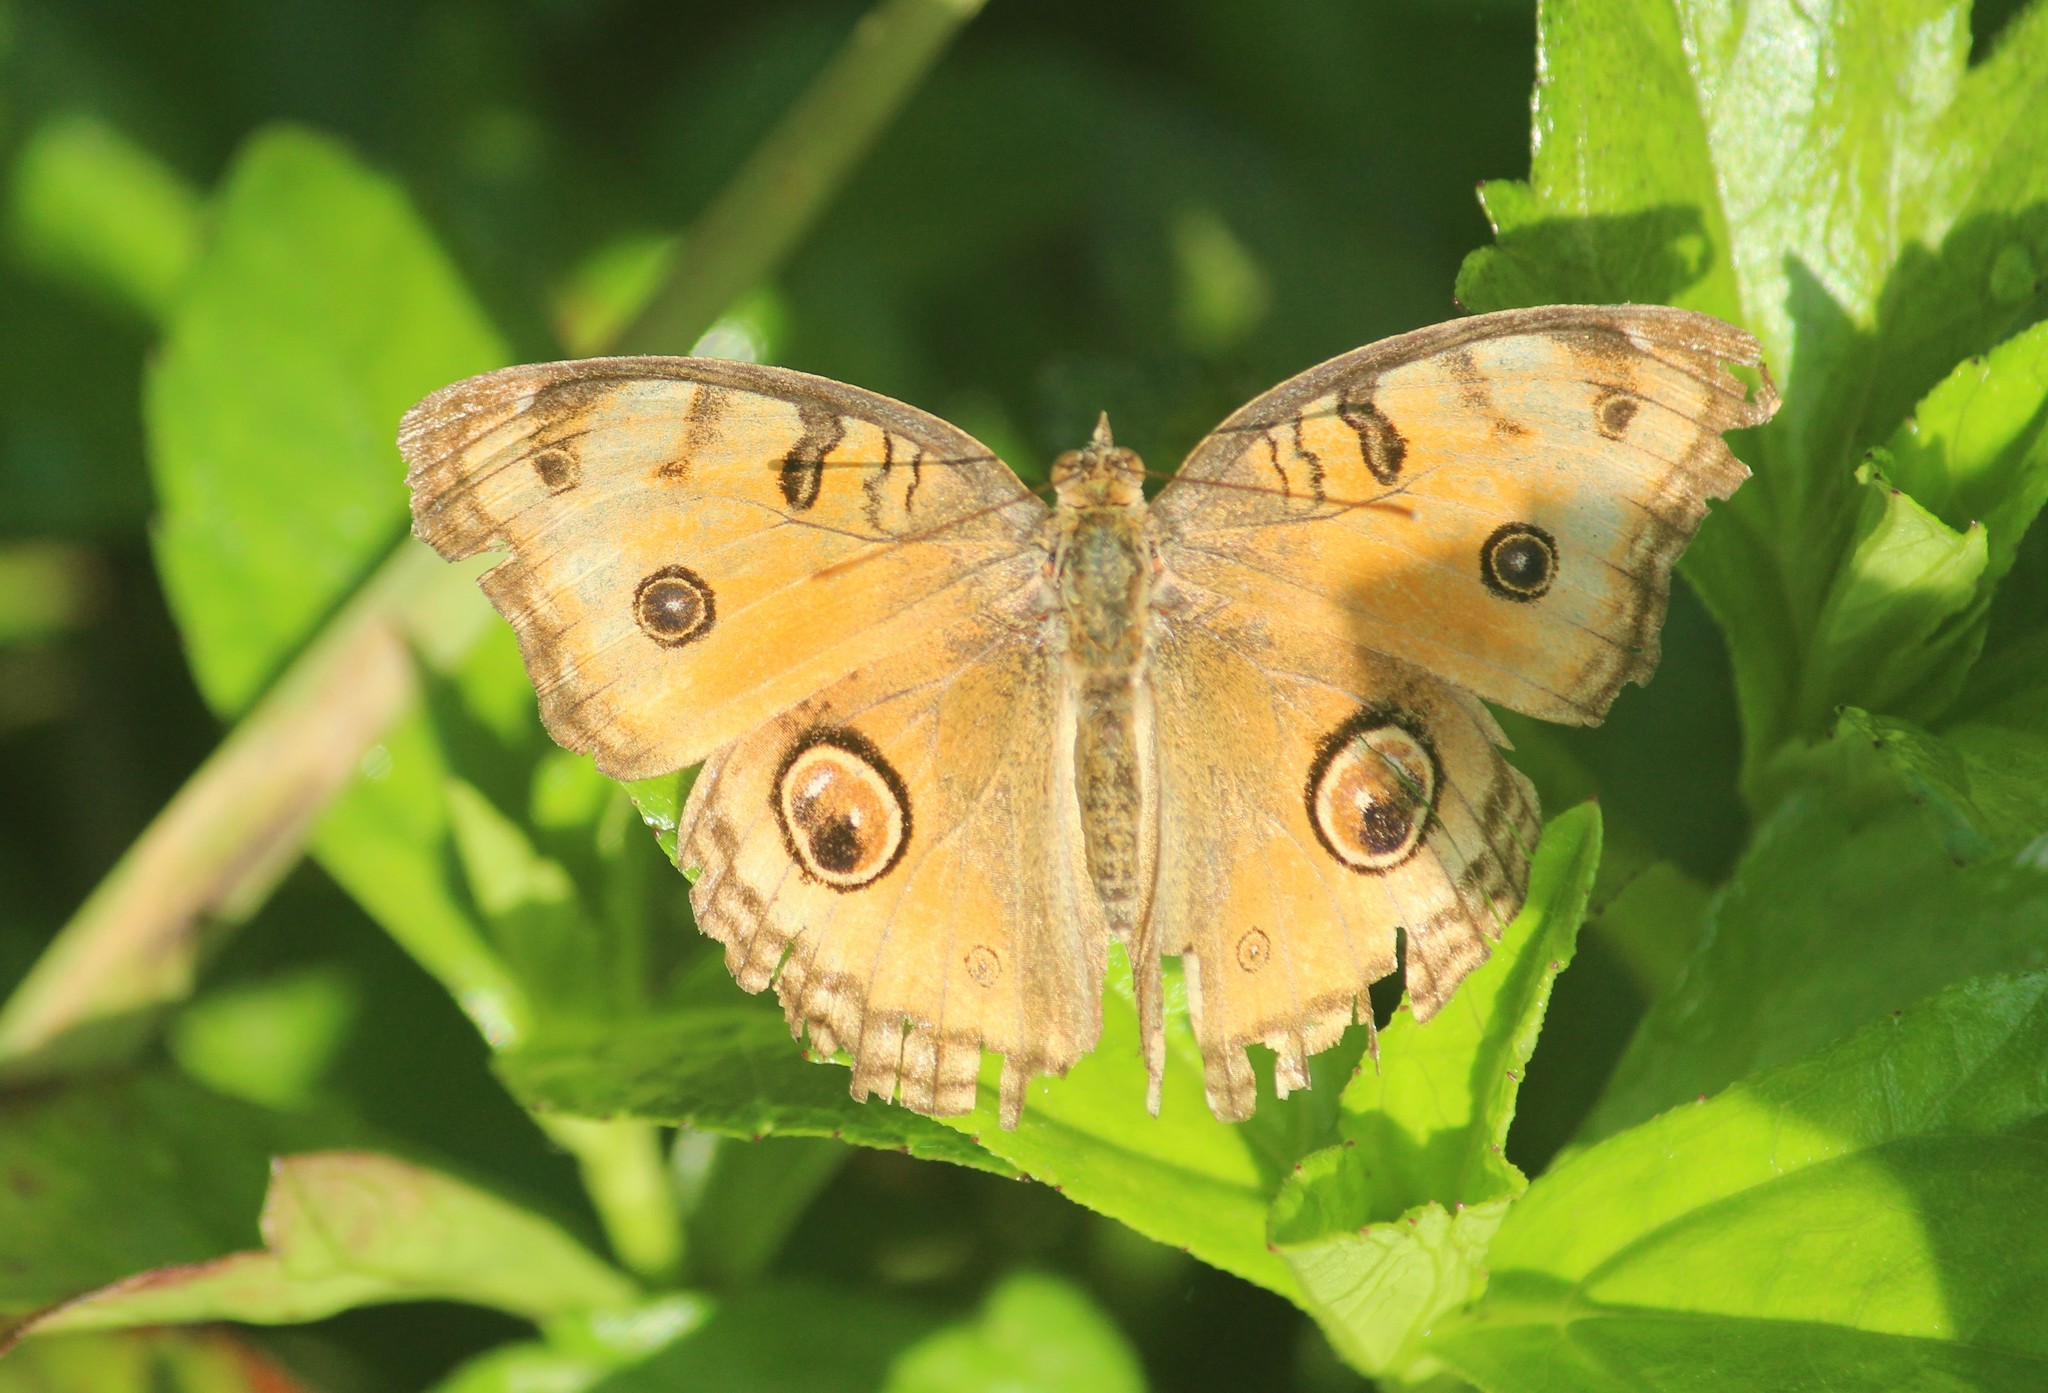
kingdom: Animalia
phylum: Arthropoda
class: Insecta
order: Lepidoptera
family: Nymphalidae
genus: Junonia
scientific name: Junonia almana
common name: Peacock pansy
